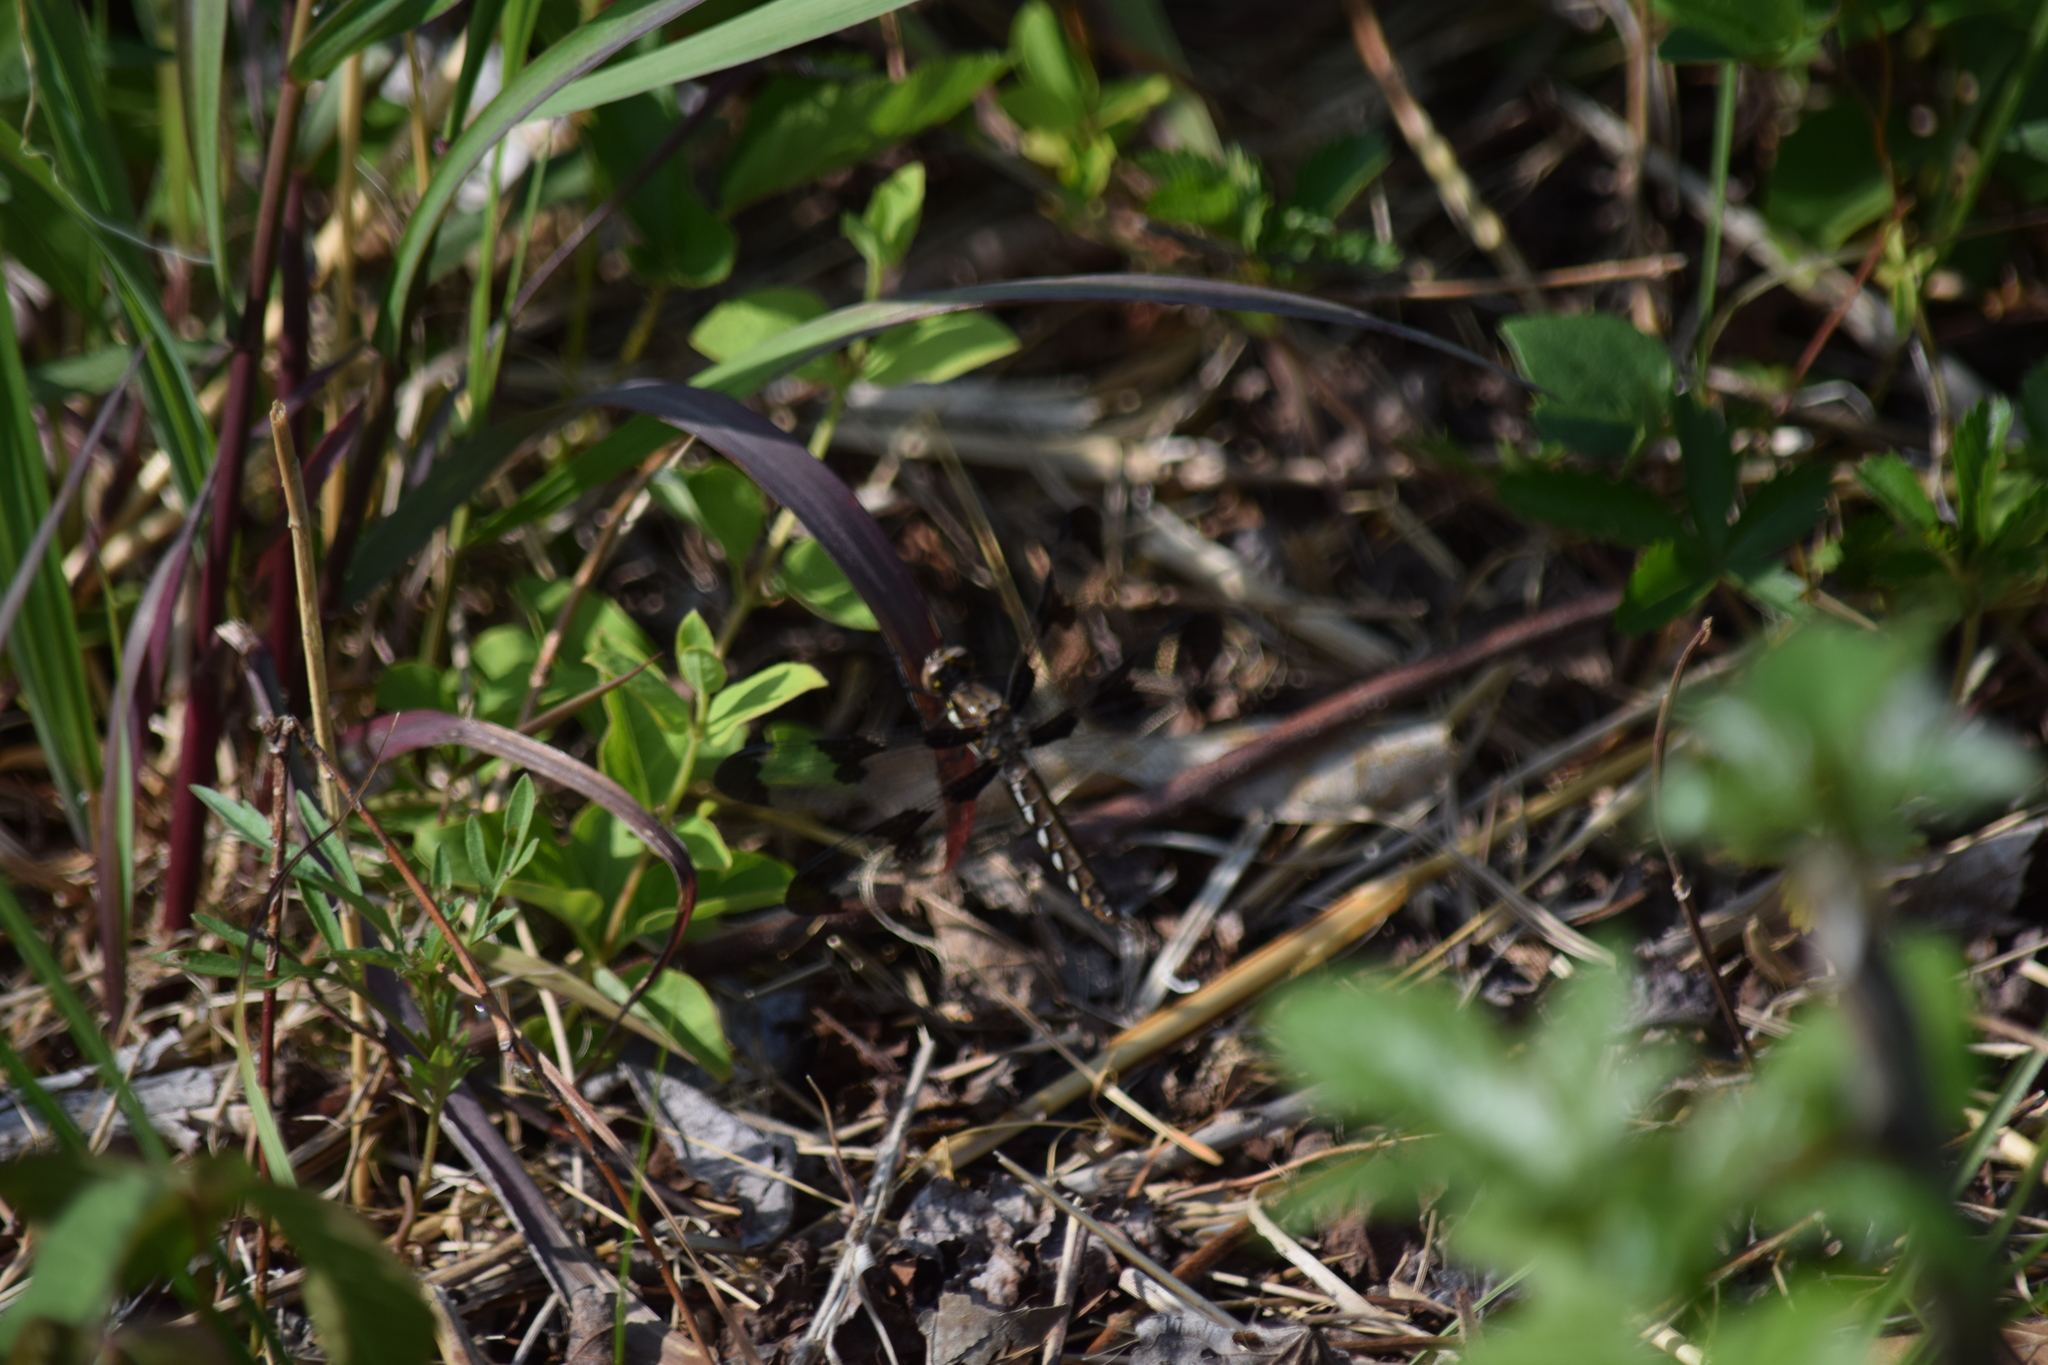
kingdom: Animalia
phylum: Arthropoda
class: Insecta
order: Odonata
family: Libellulidae
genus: Plathemis
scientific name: Plathemis lydia
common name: Common whitetail
